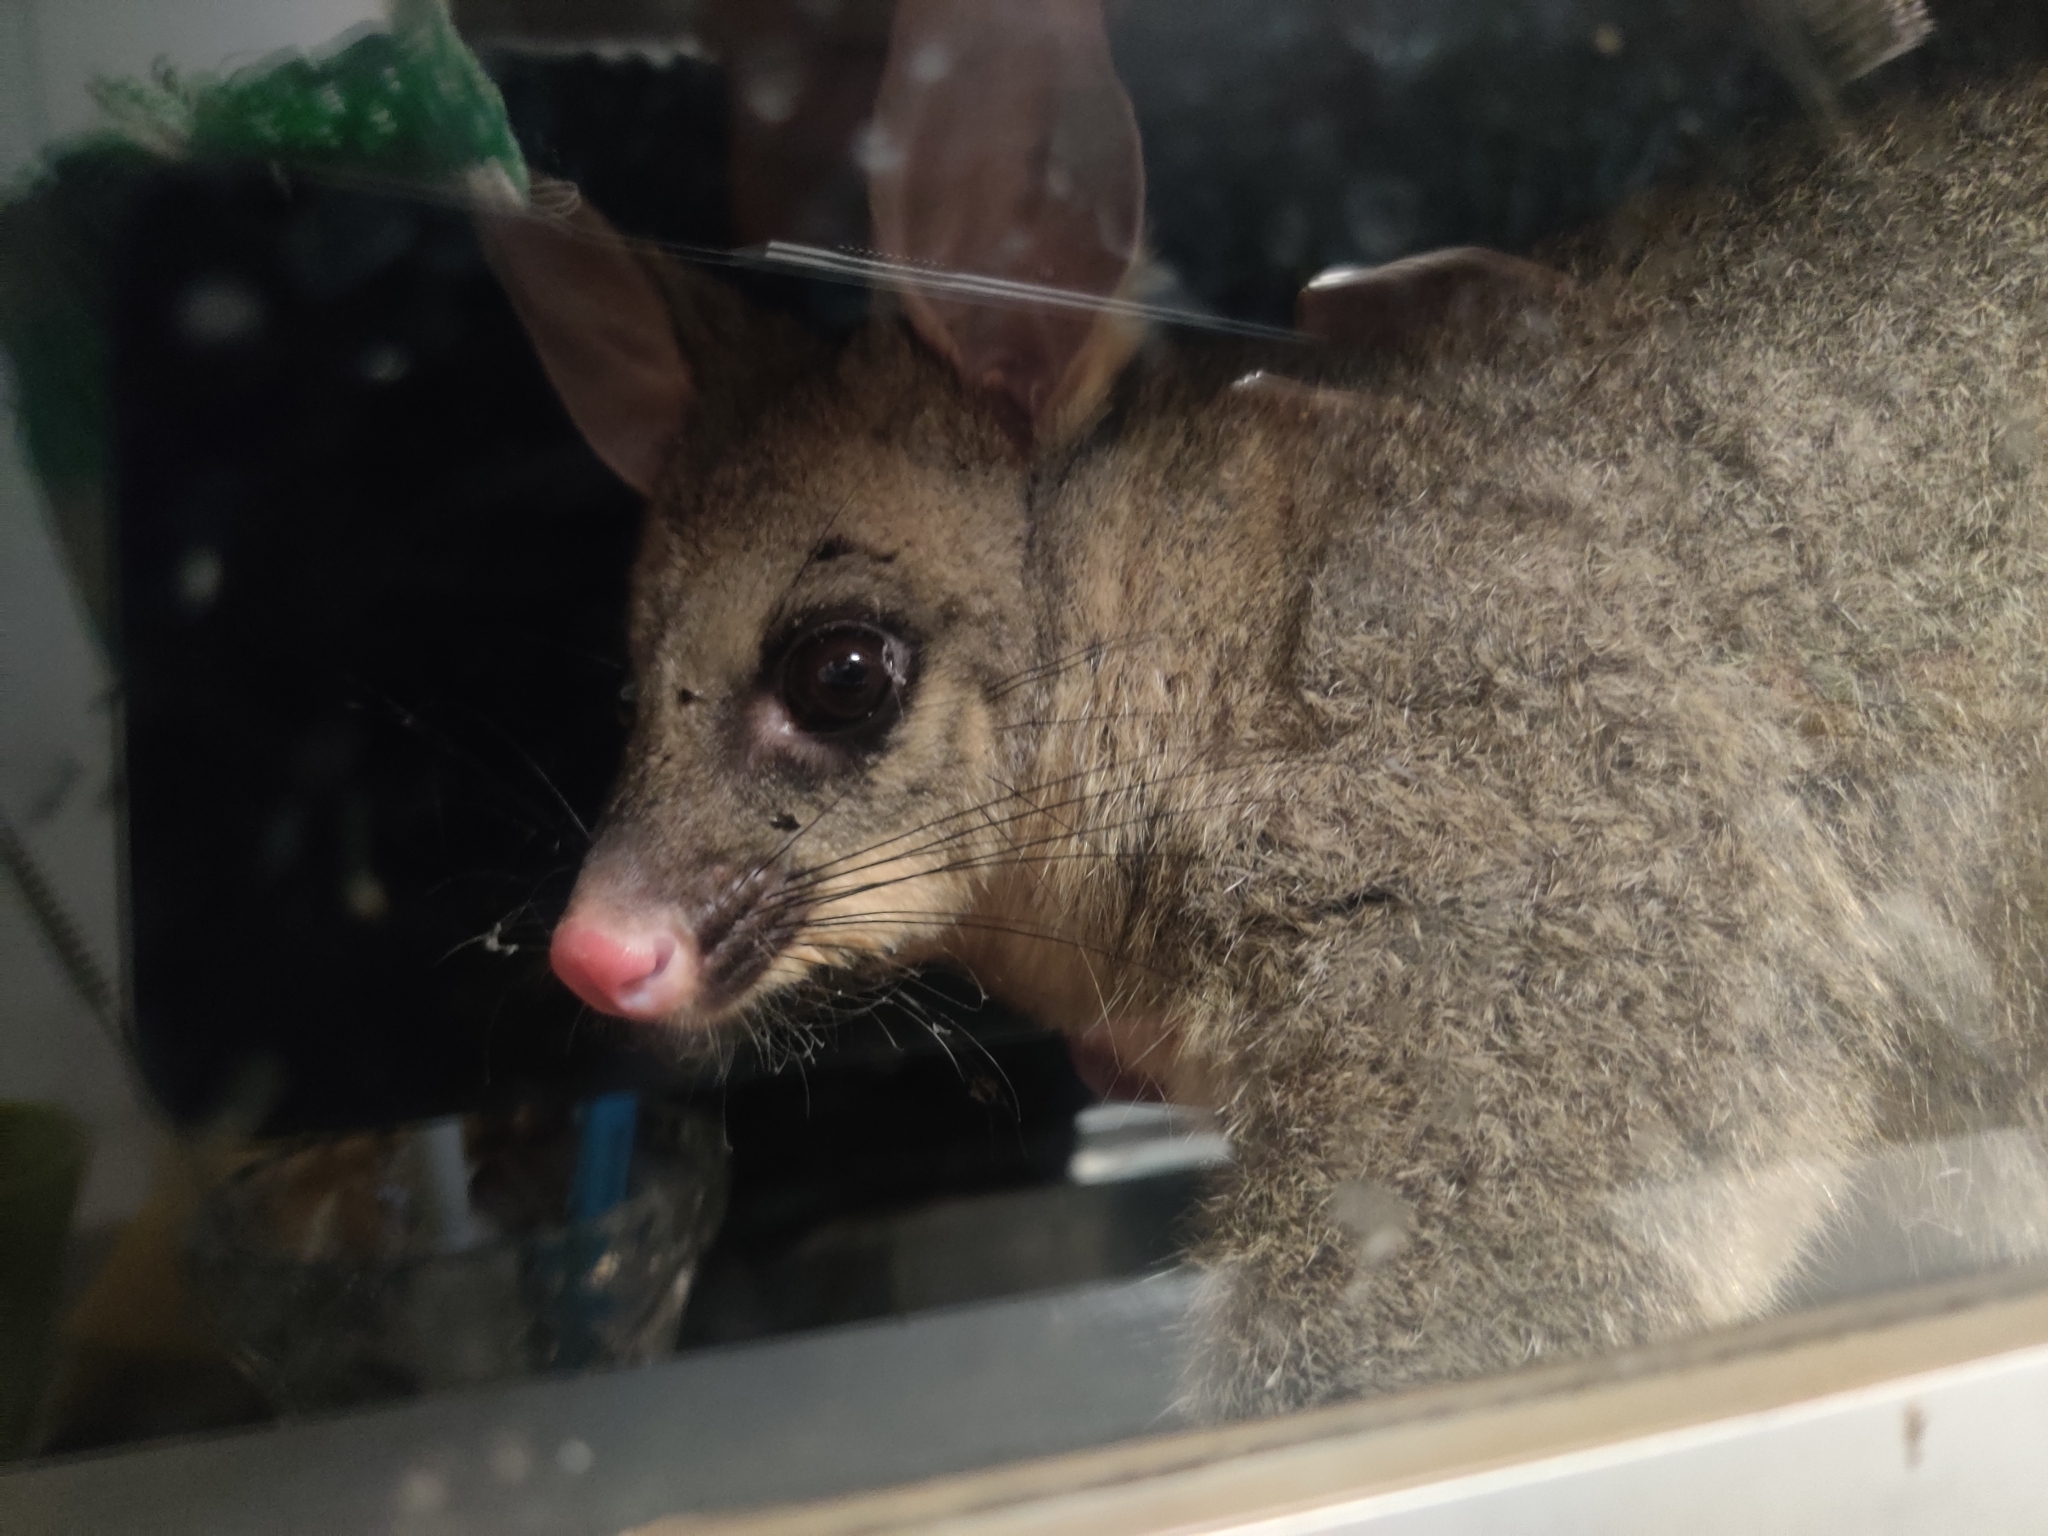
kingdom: Animalia
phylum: Chordata
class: Mammalia
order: Diprotodontia
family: Phalangeridae
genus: Trichosurus
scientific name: Trichosurus vulpecula
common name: Common brushtail
